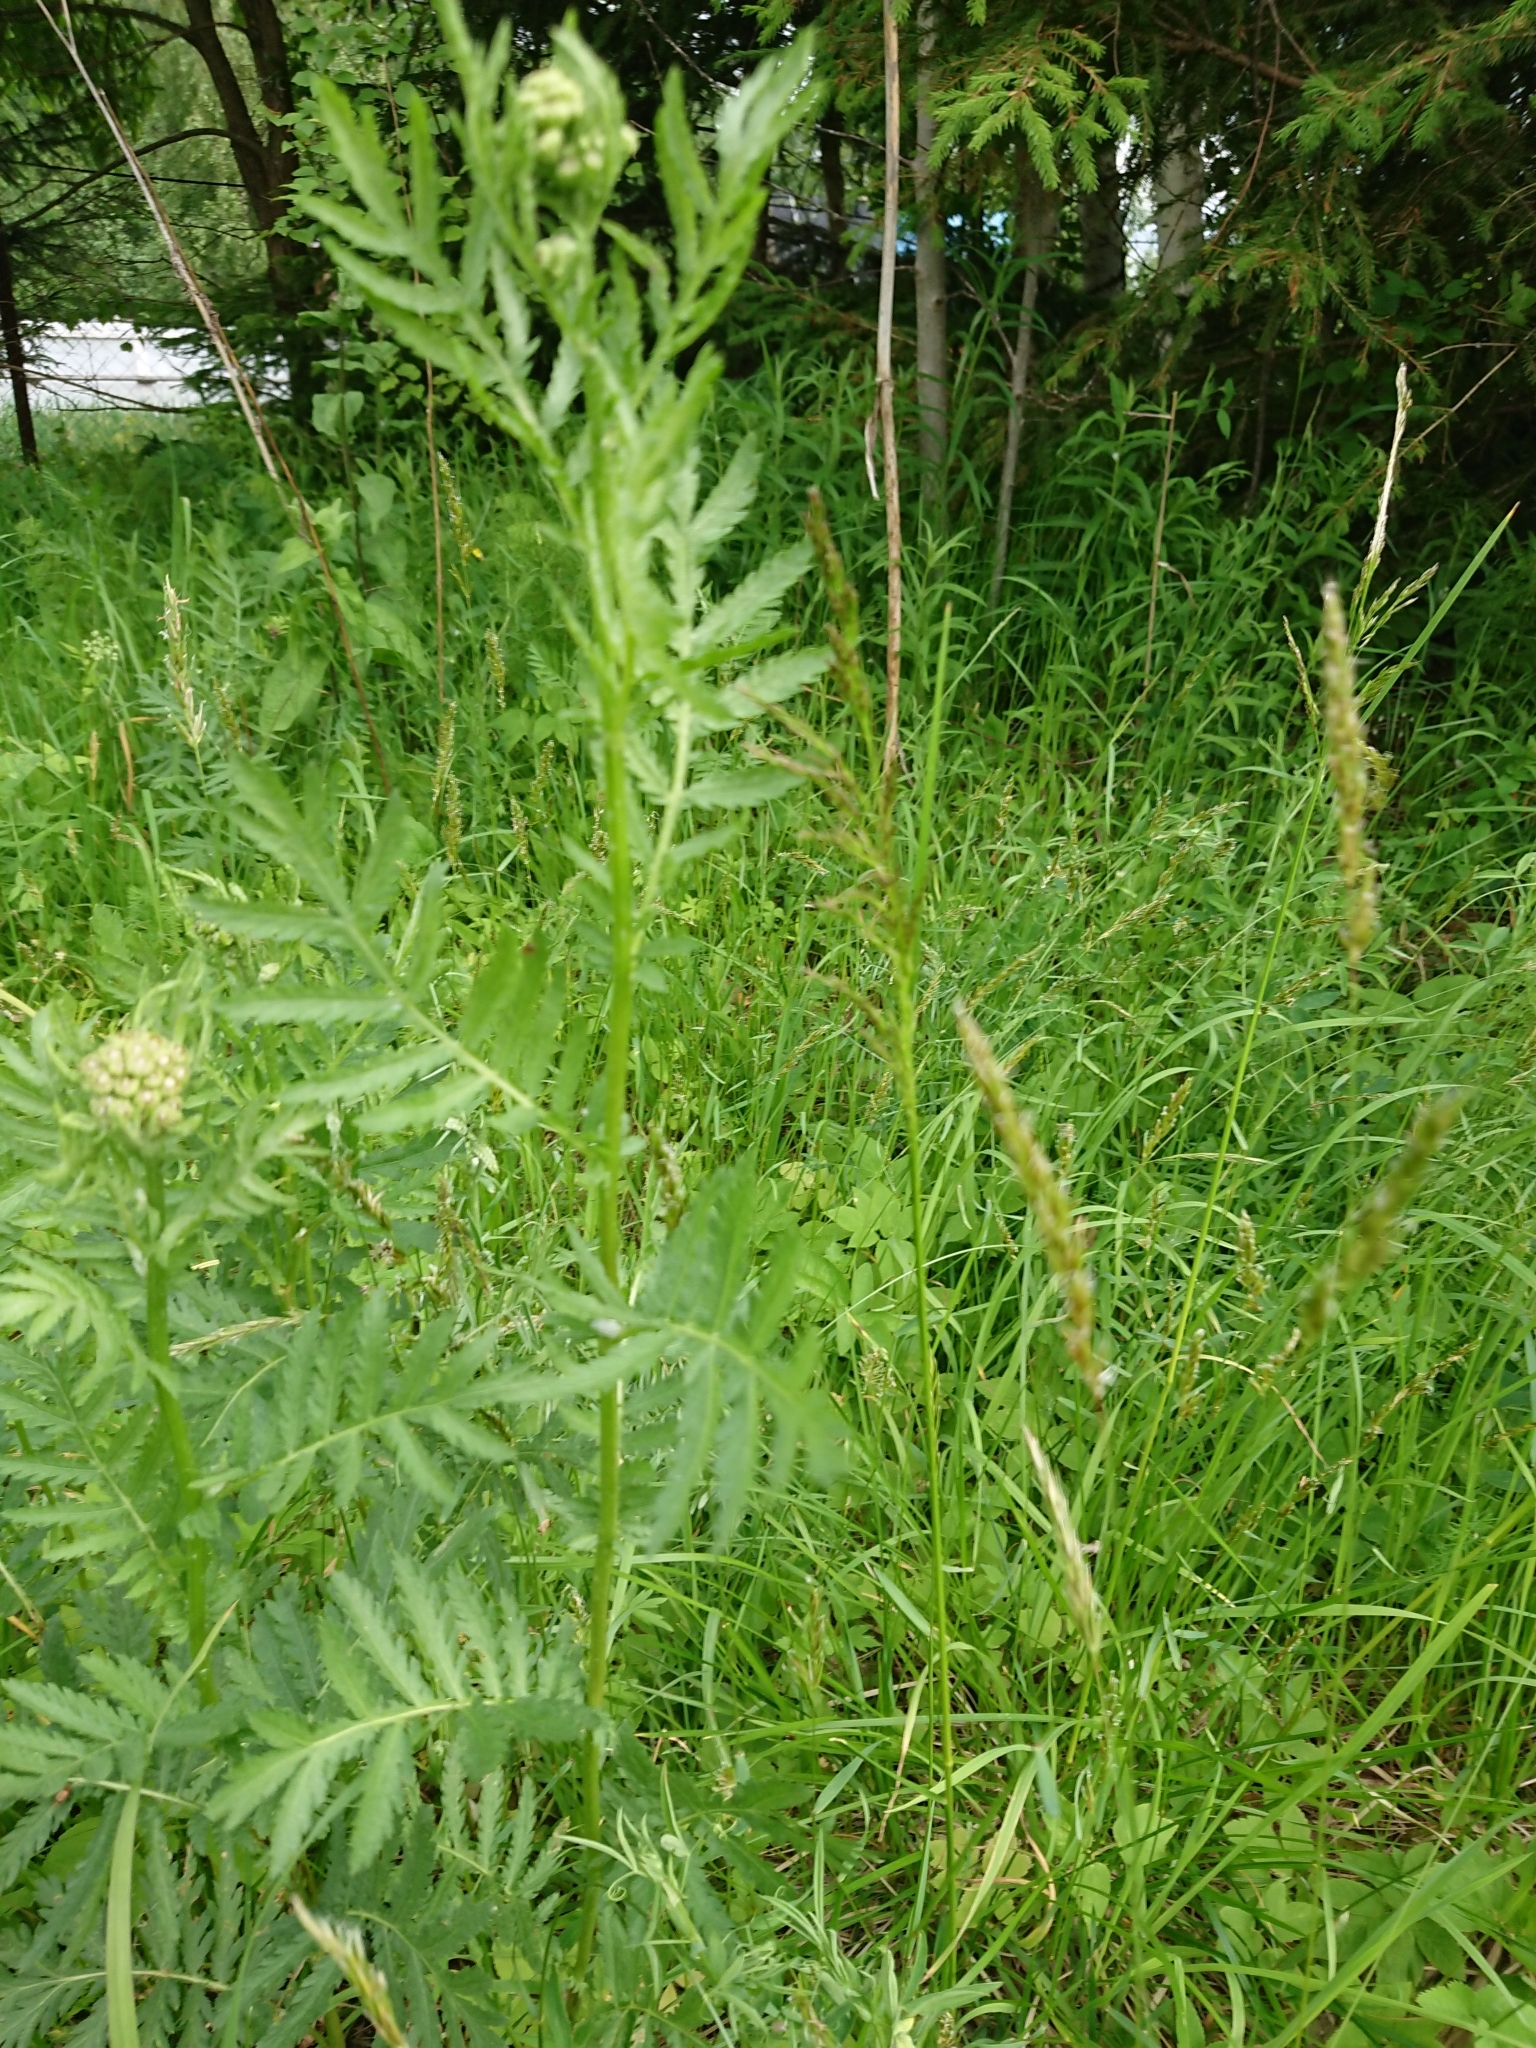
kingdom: Plantae
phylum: Tracheophyta
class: Magnoliopsida
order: Asterales
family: Asteraceae
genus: Tanacetum
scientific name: Tanacetum vulgare
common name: Common tansy
